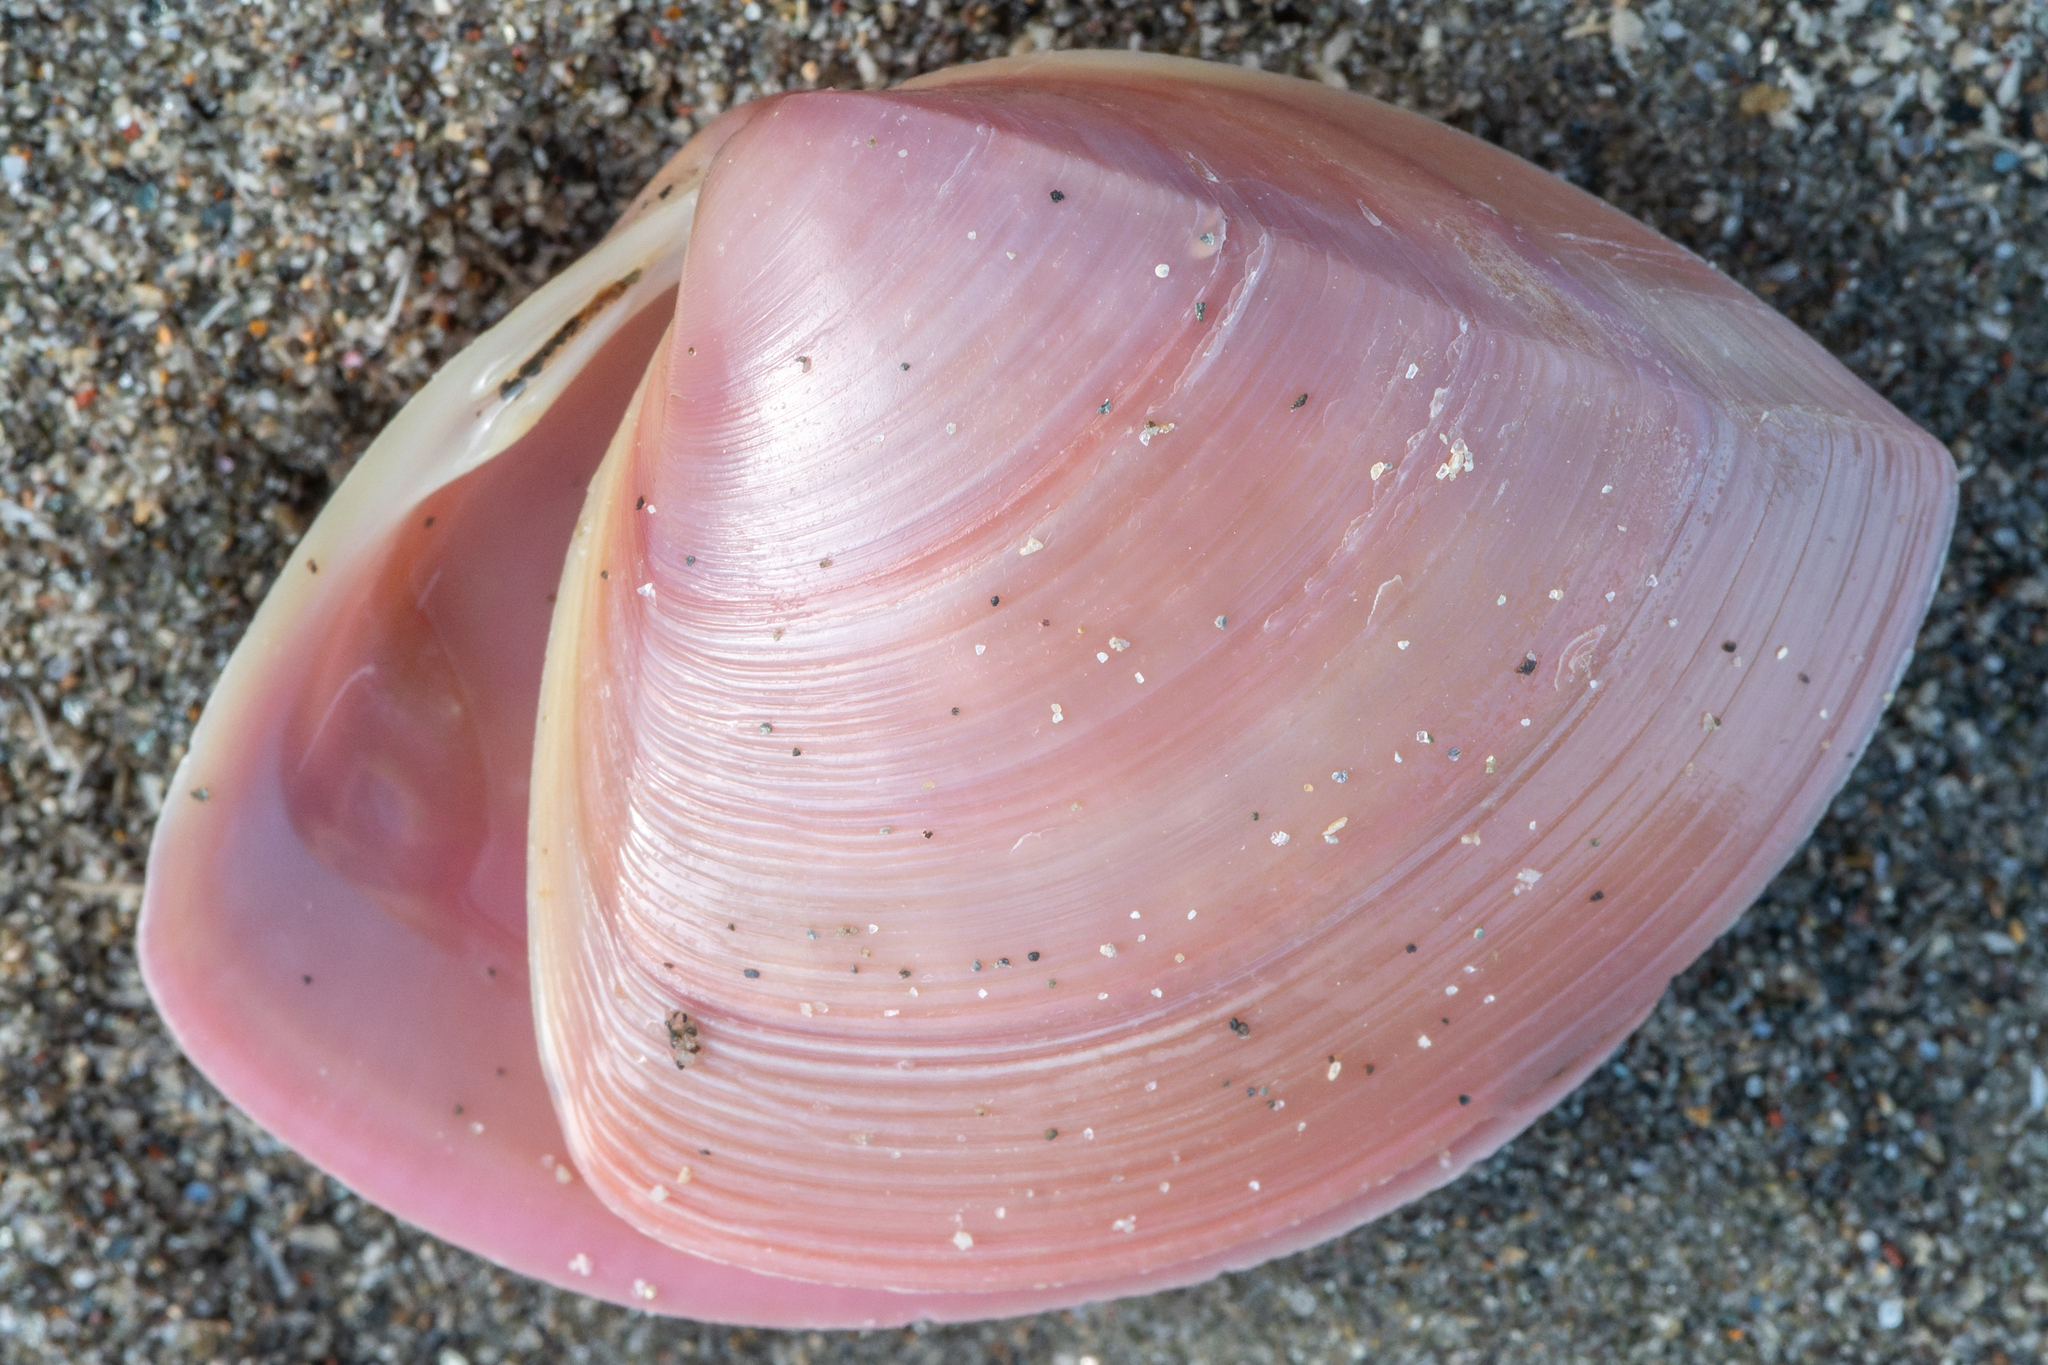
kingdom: Animalia
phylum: Mollusca
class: Bivalvia
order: Venerida
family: Mactridae
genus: Crassula
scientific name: Crassula aequilatera
